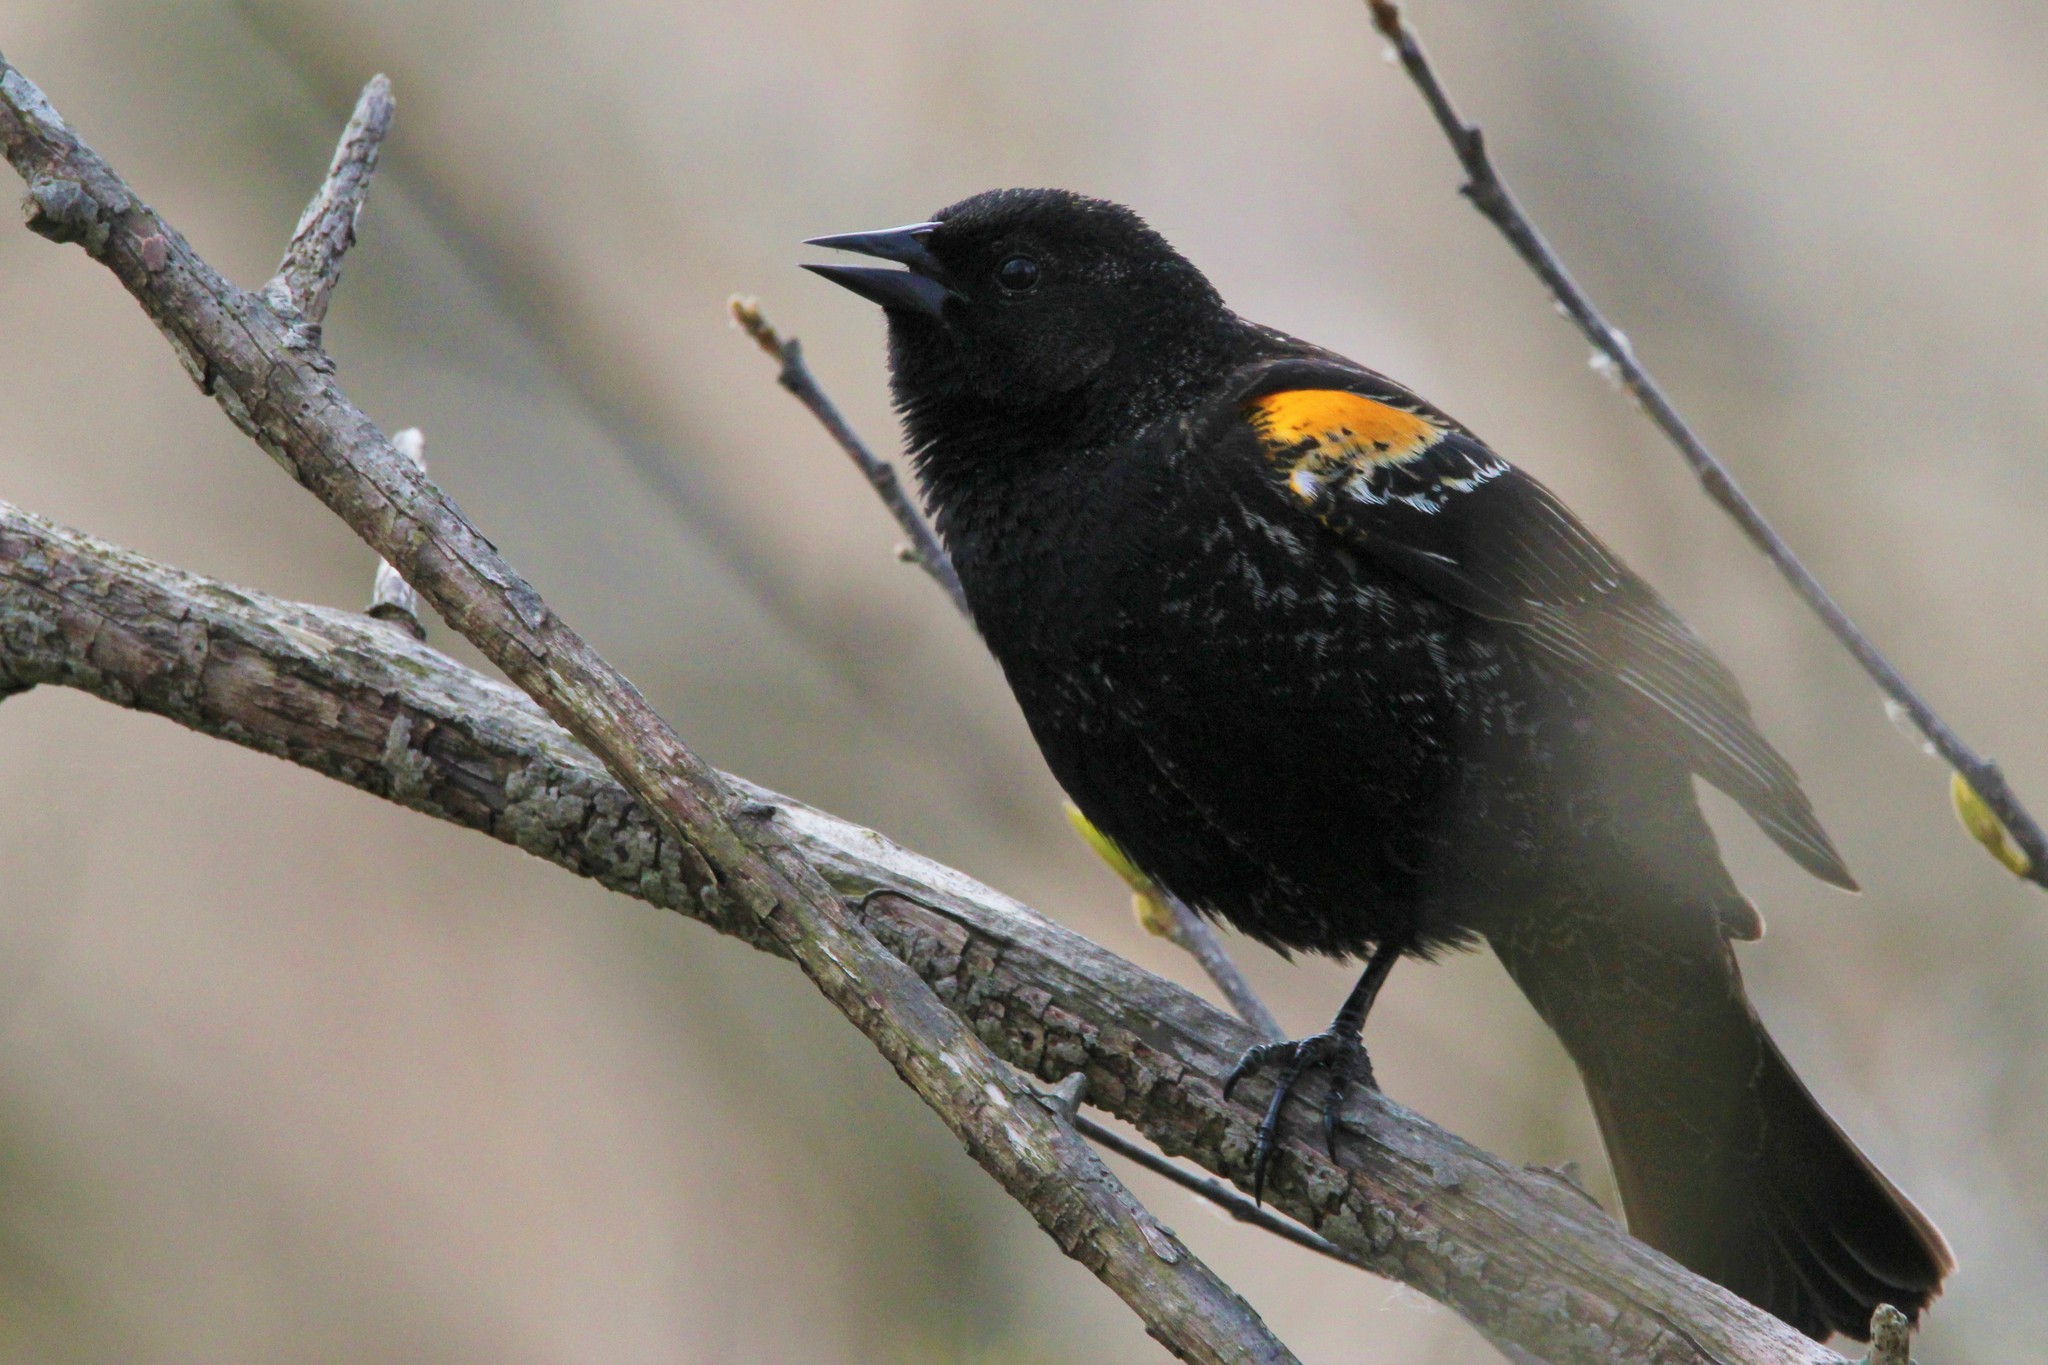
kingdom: Animalia
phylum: Chordata
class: Aves
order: Passeriformes
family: Icteridae
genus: Agelaius
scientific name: Agelaius phoeniceus
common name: Red-winged blackbird
